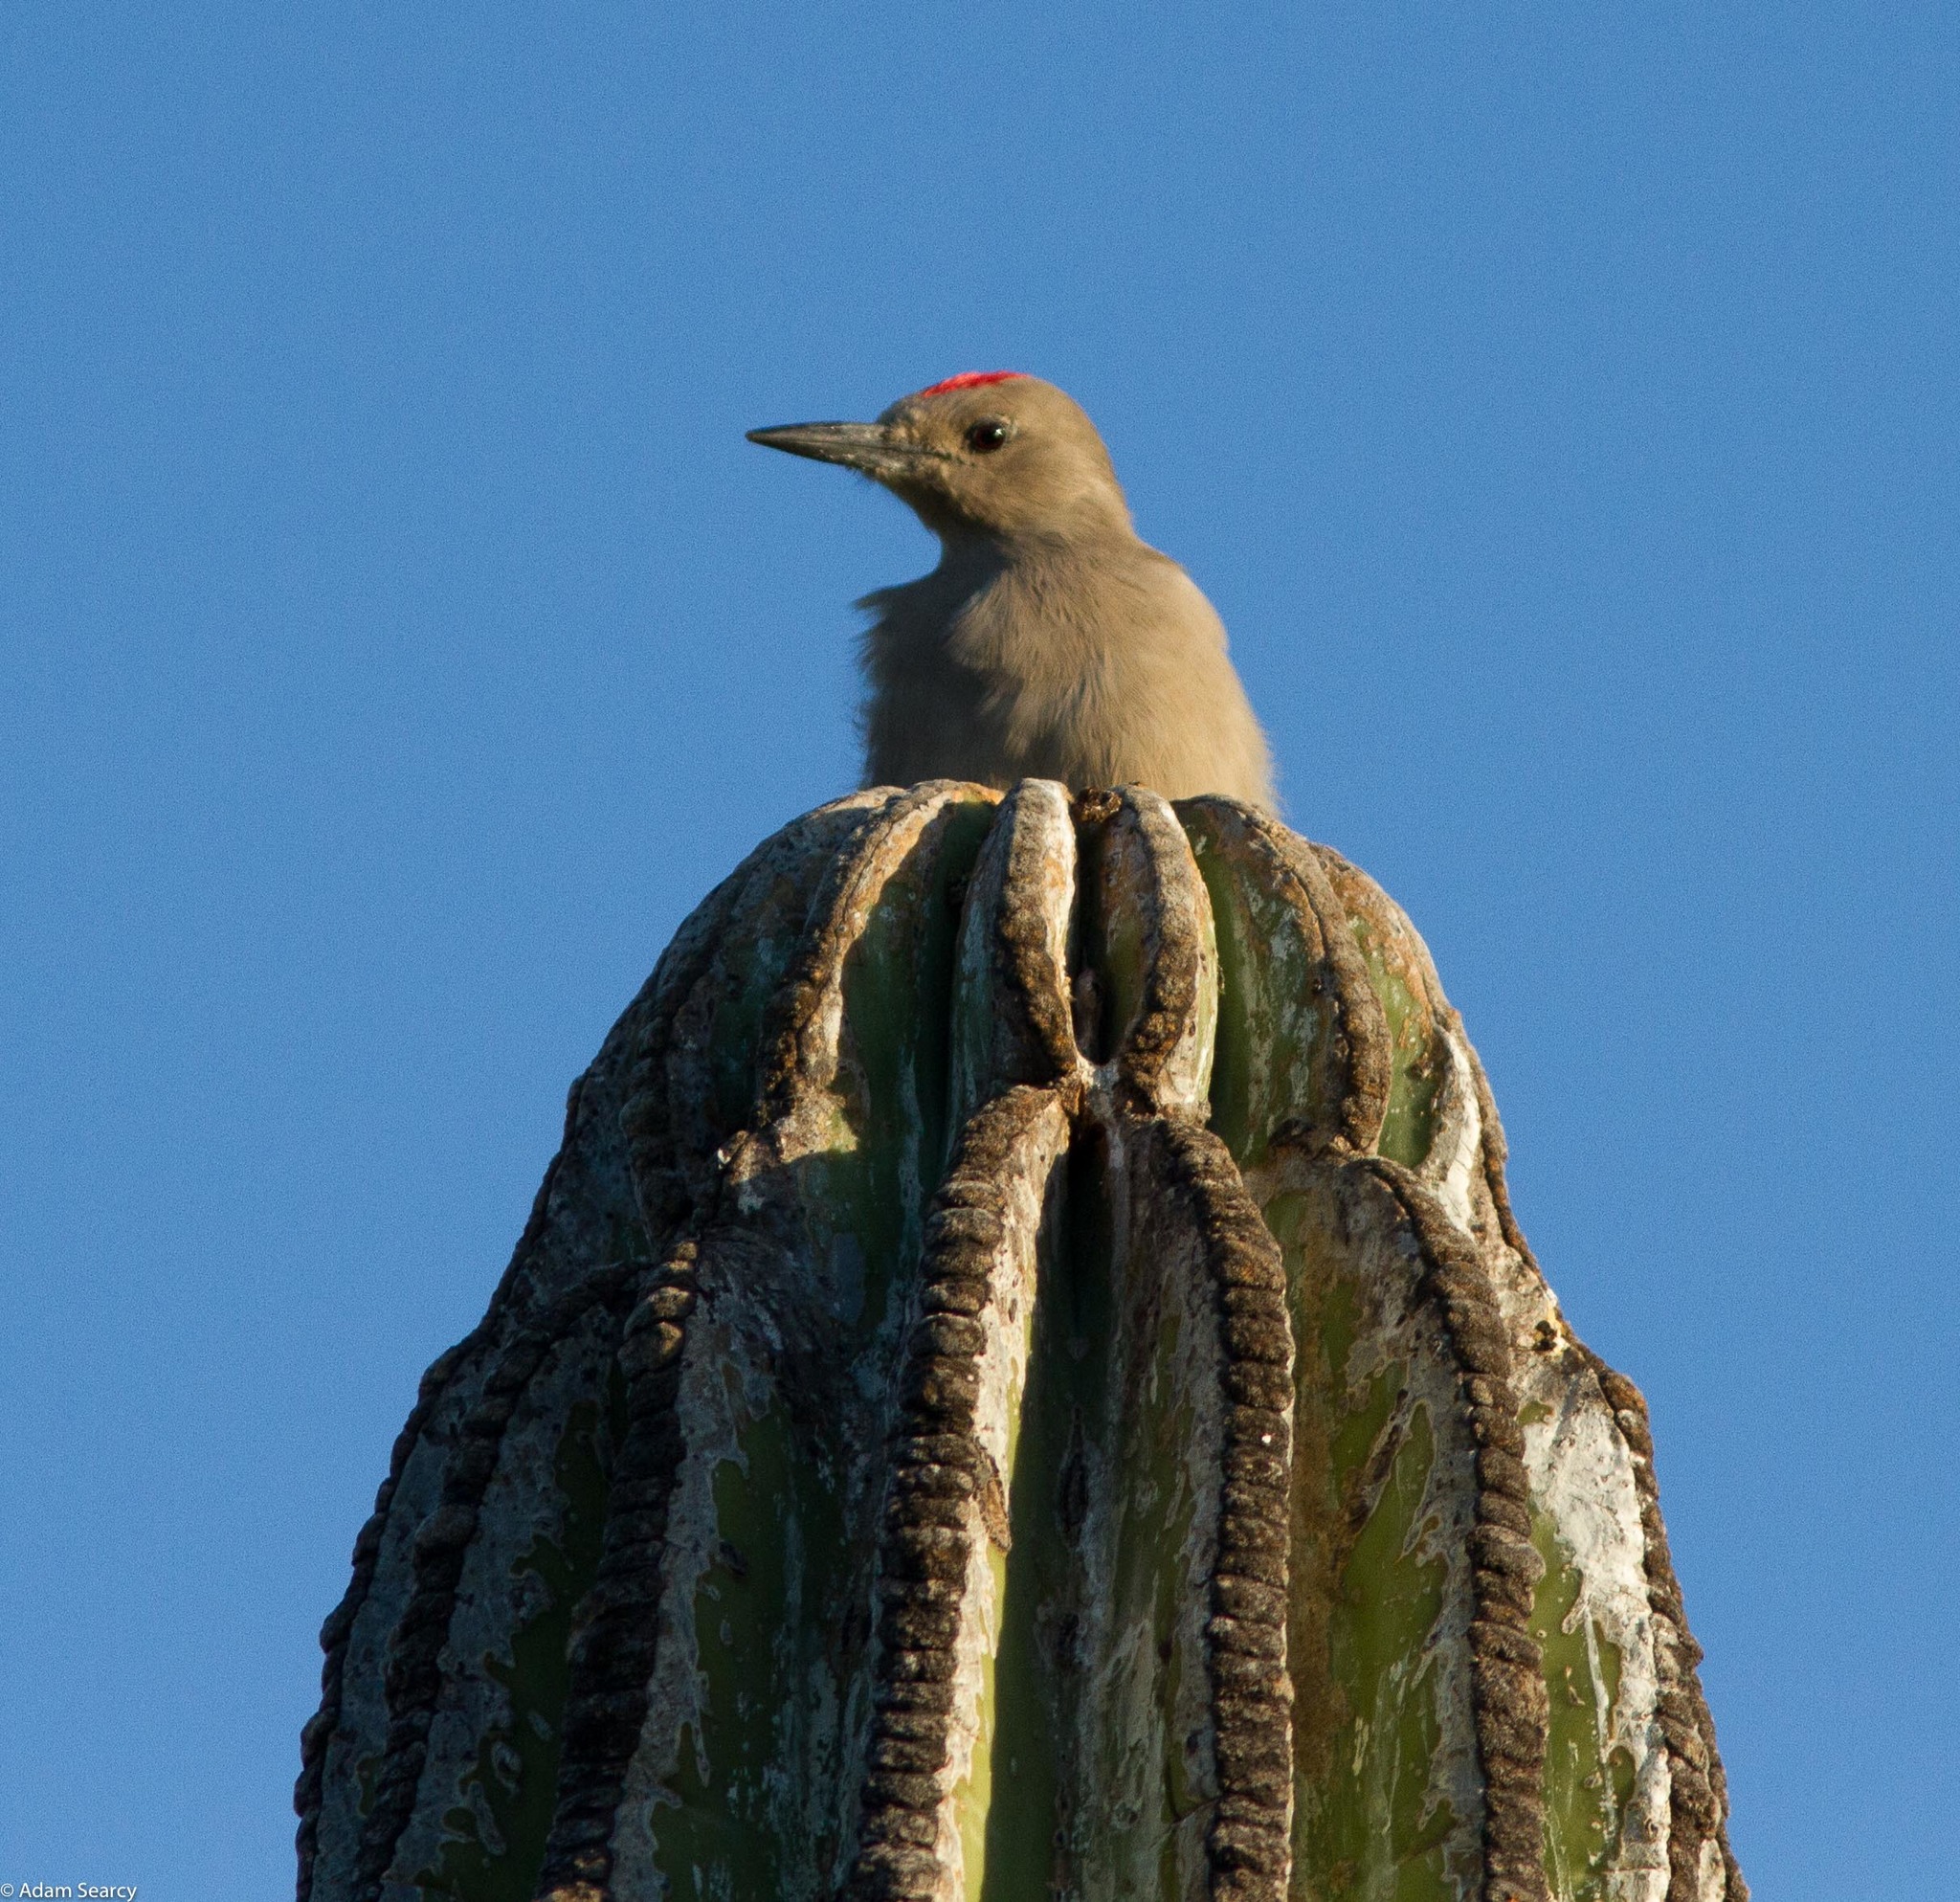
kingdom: Animalia
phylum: Chordata
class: Aves
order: Piciformes
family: Picidae
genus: Melanerpes
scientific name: Melanerpes uropygialis
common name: Gila woodpecker
